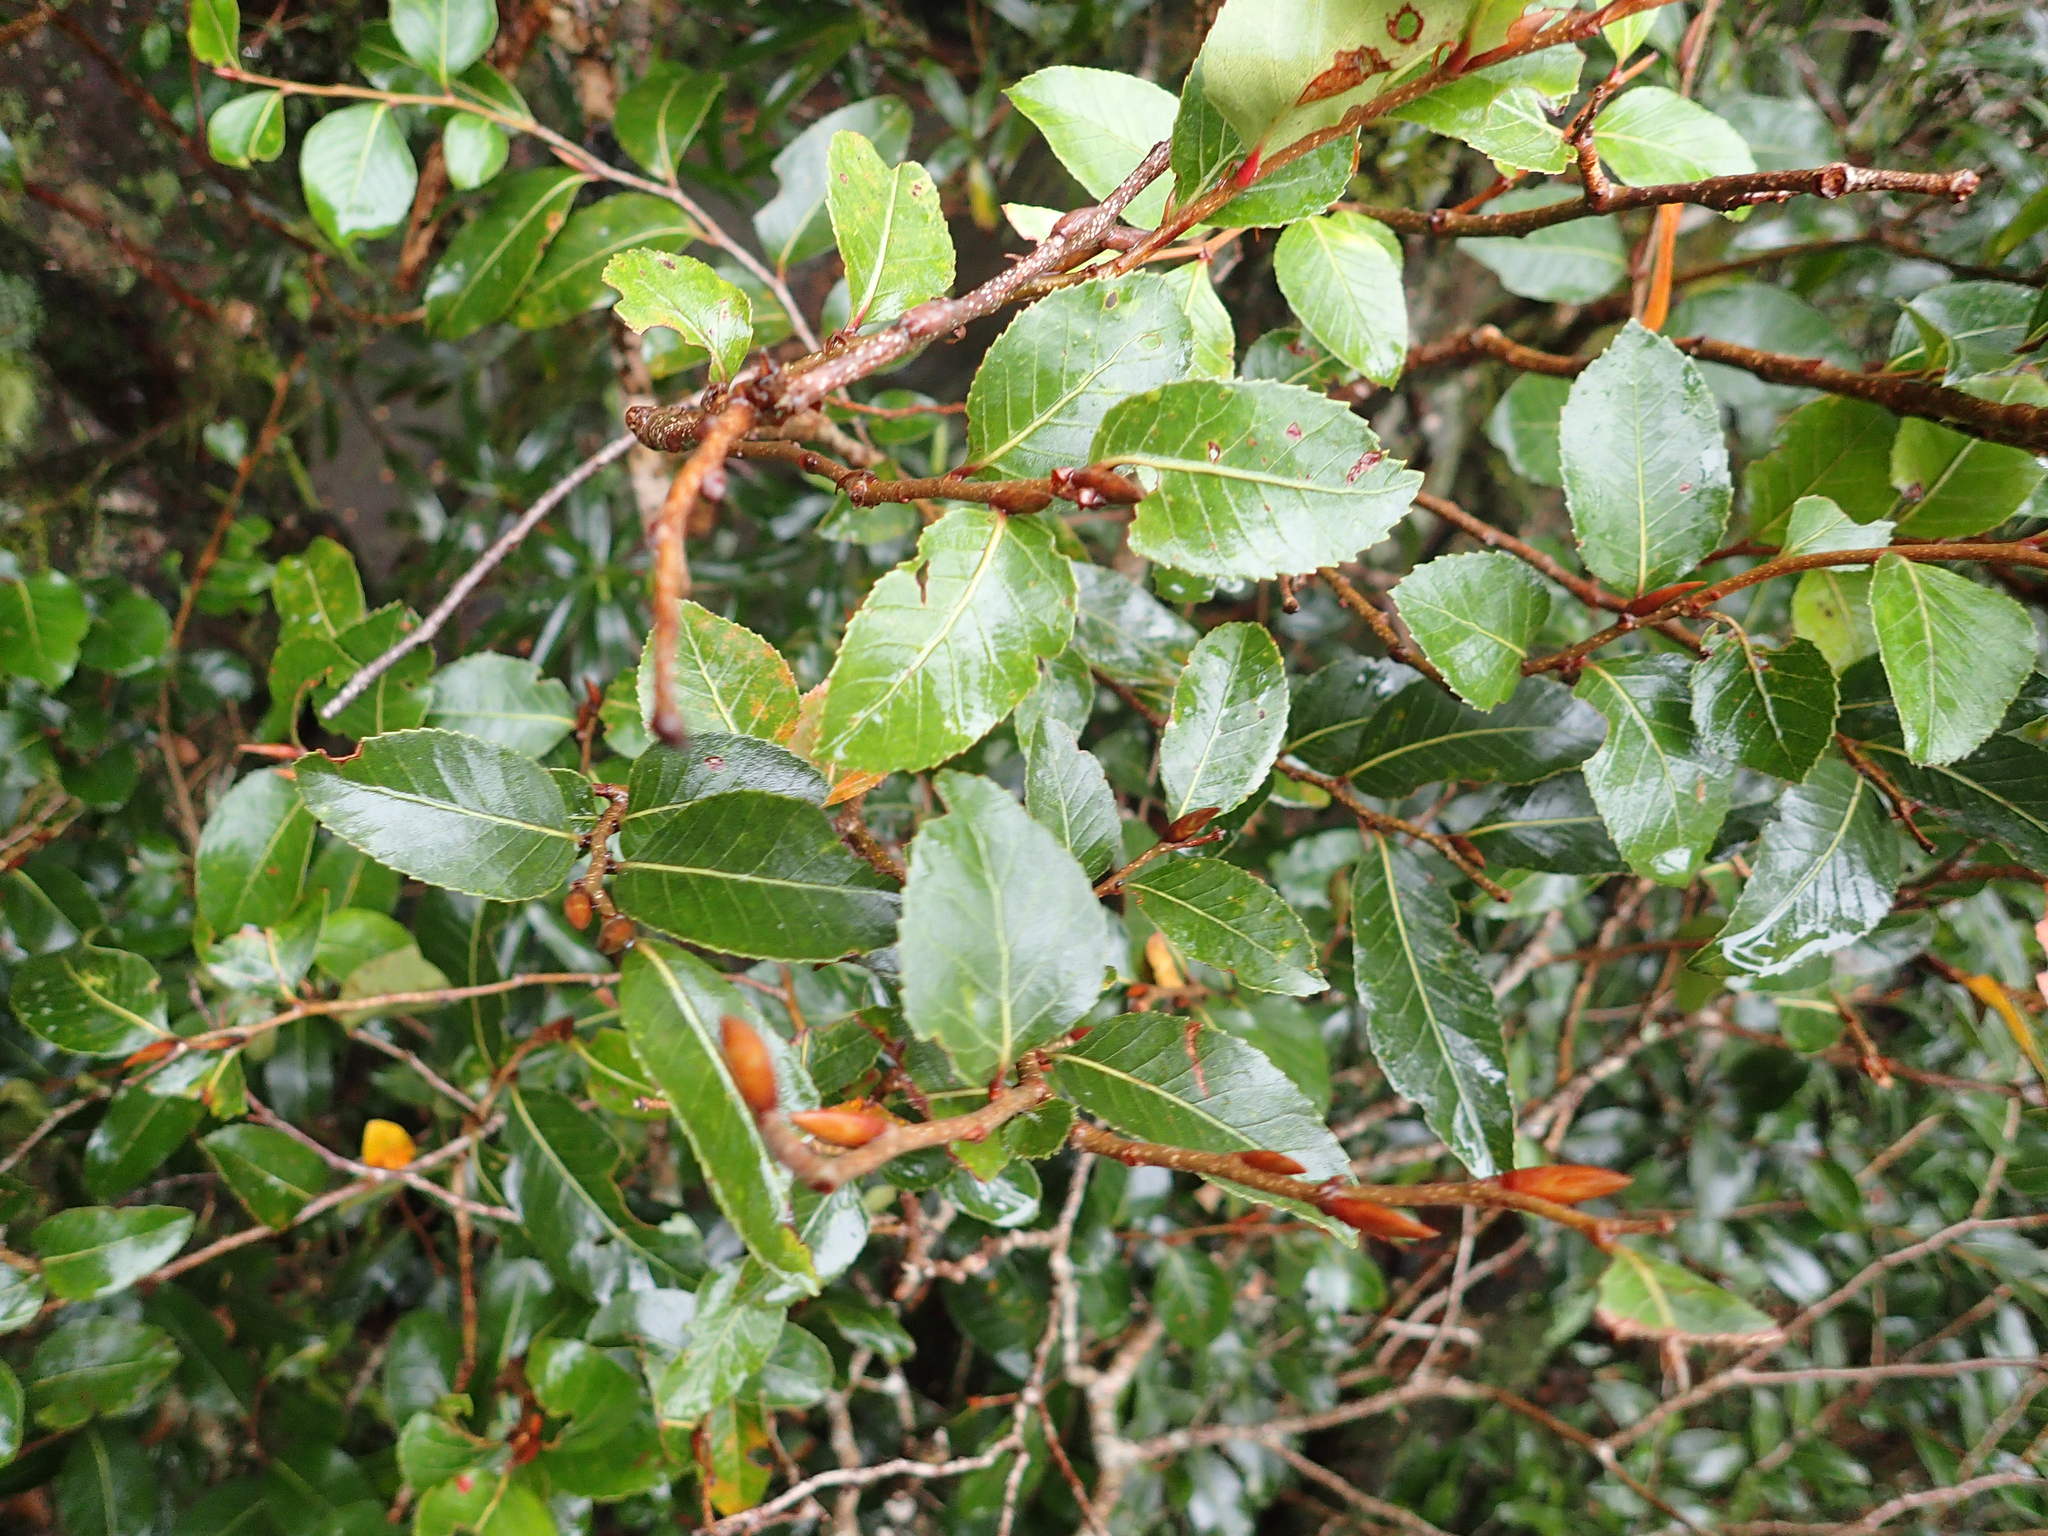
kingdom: Plantae
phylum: Tracheophyta
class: Magnoliopsida
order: Fagales
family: Nothofagaceae
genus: Nothofagus
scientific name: Nothofagus moorei
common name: Antarctic beech
